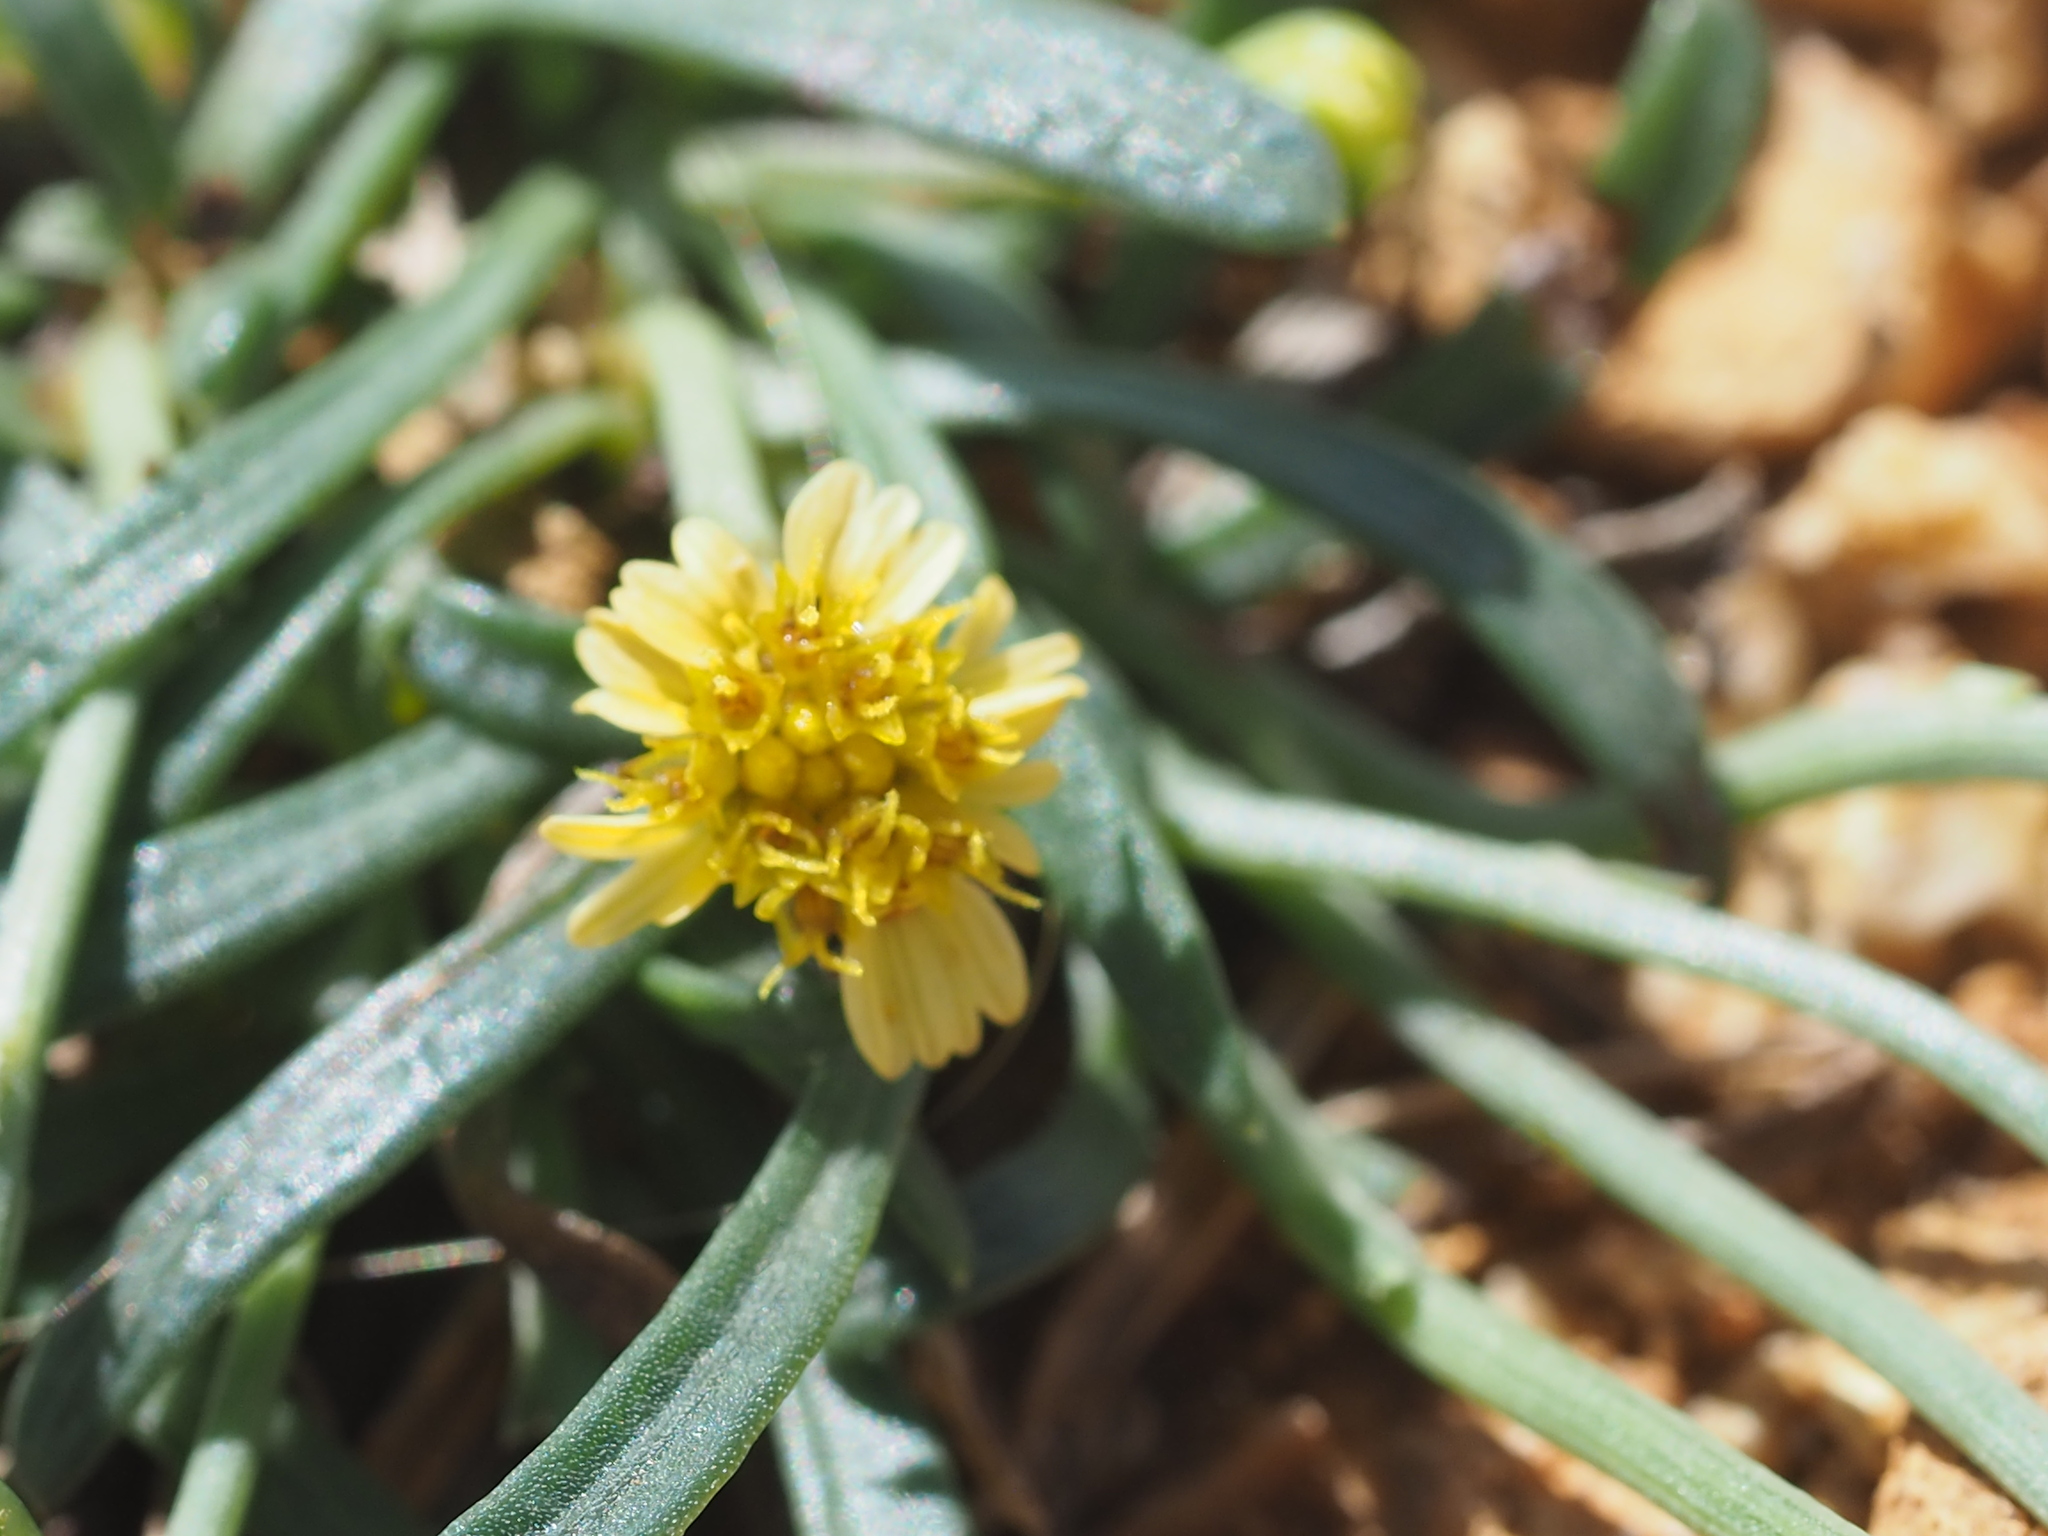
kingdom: Plantae
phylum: Tracheophyta
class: Magnoliopsida
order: Asterales
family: Asteraceae
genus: Glossocardia
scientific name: Glossocardia bidens
